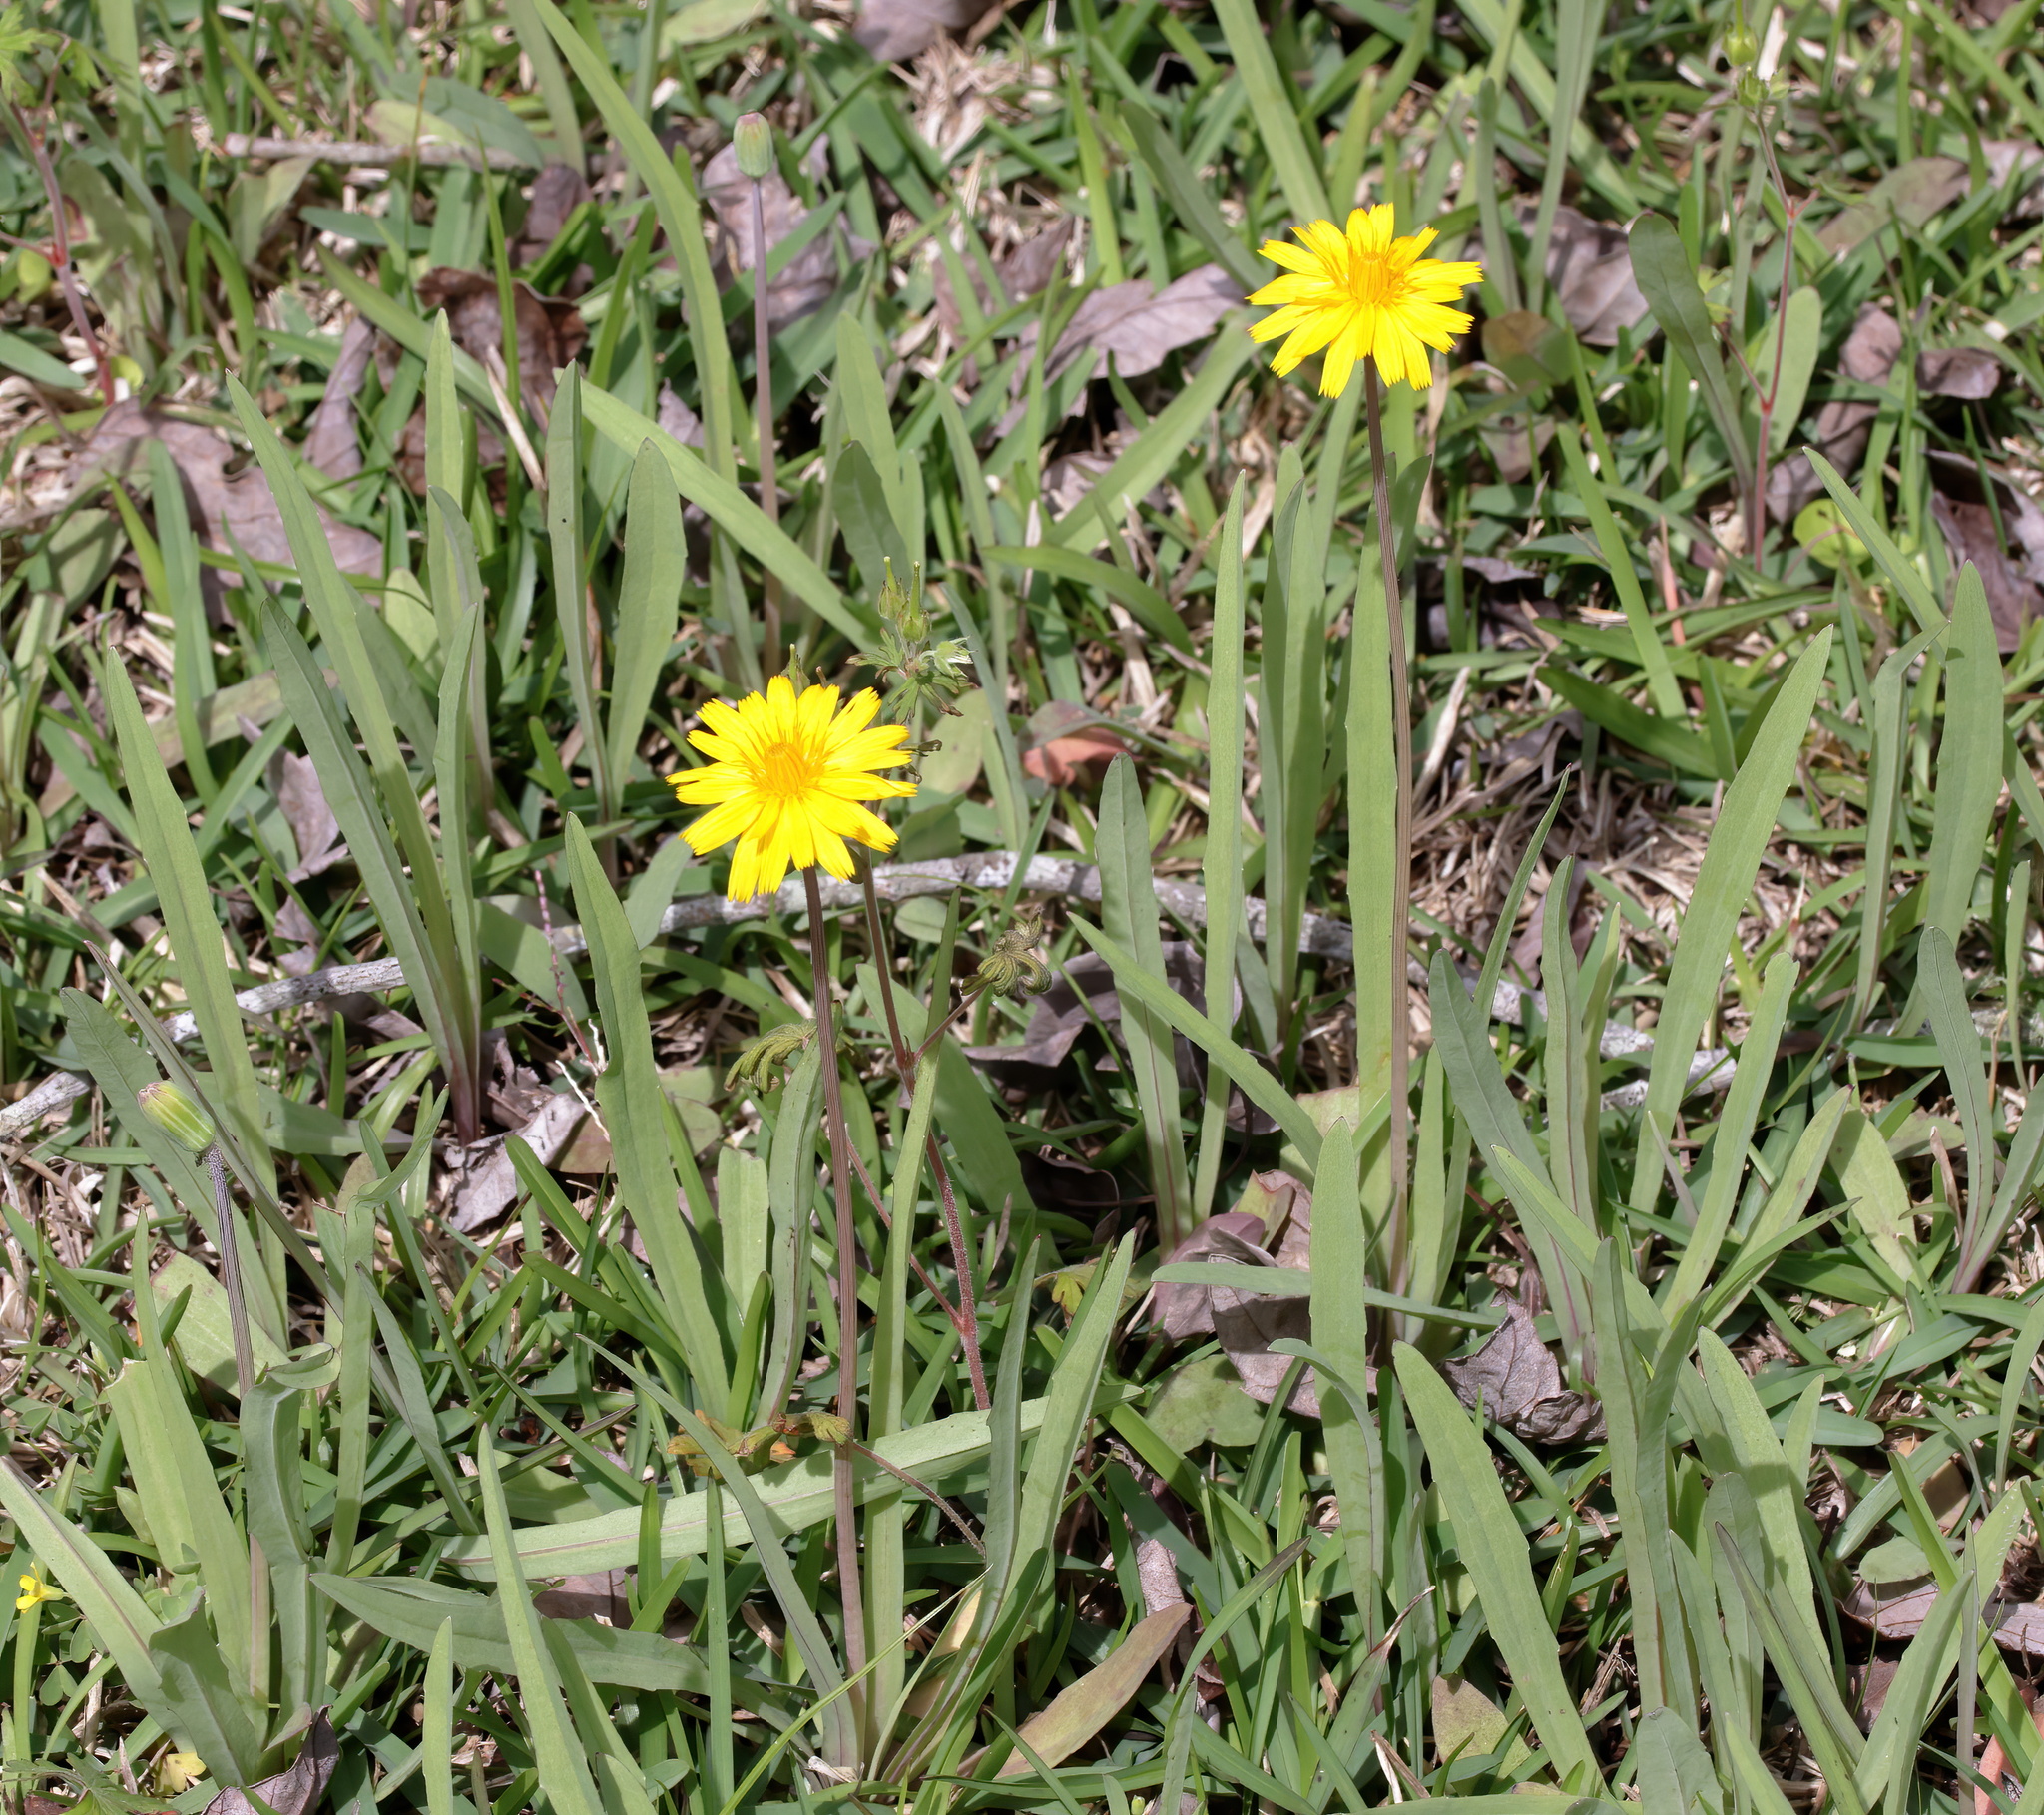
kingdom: Plantae
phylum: Tracheophyta
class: Magnoliopsida
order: Asterales
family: Asteraceae
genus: Krigia
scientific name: Krigia dandelion
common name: Colonial dwarf-dandelion
